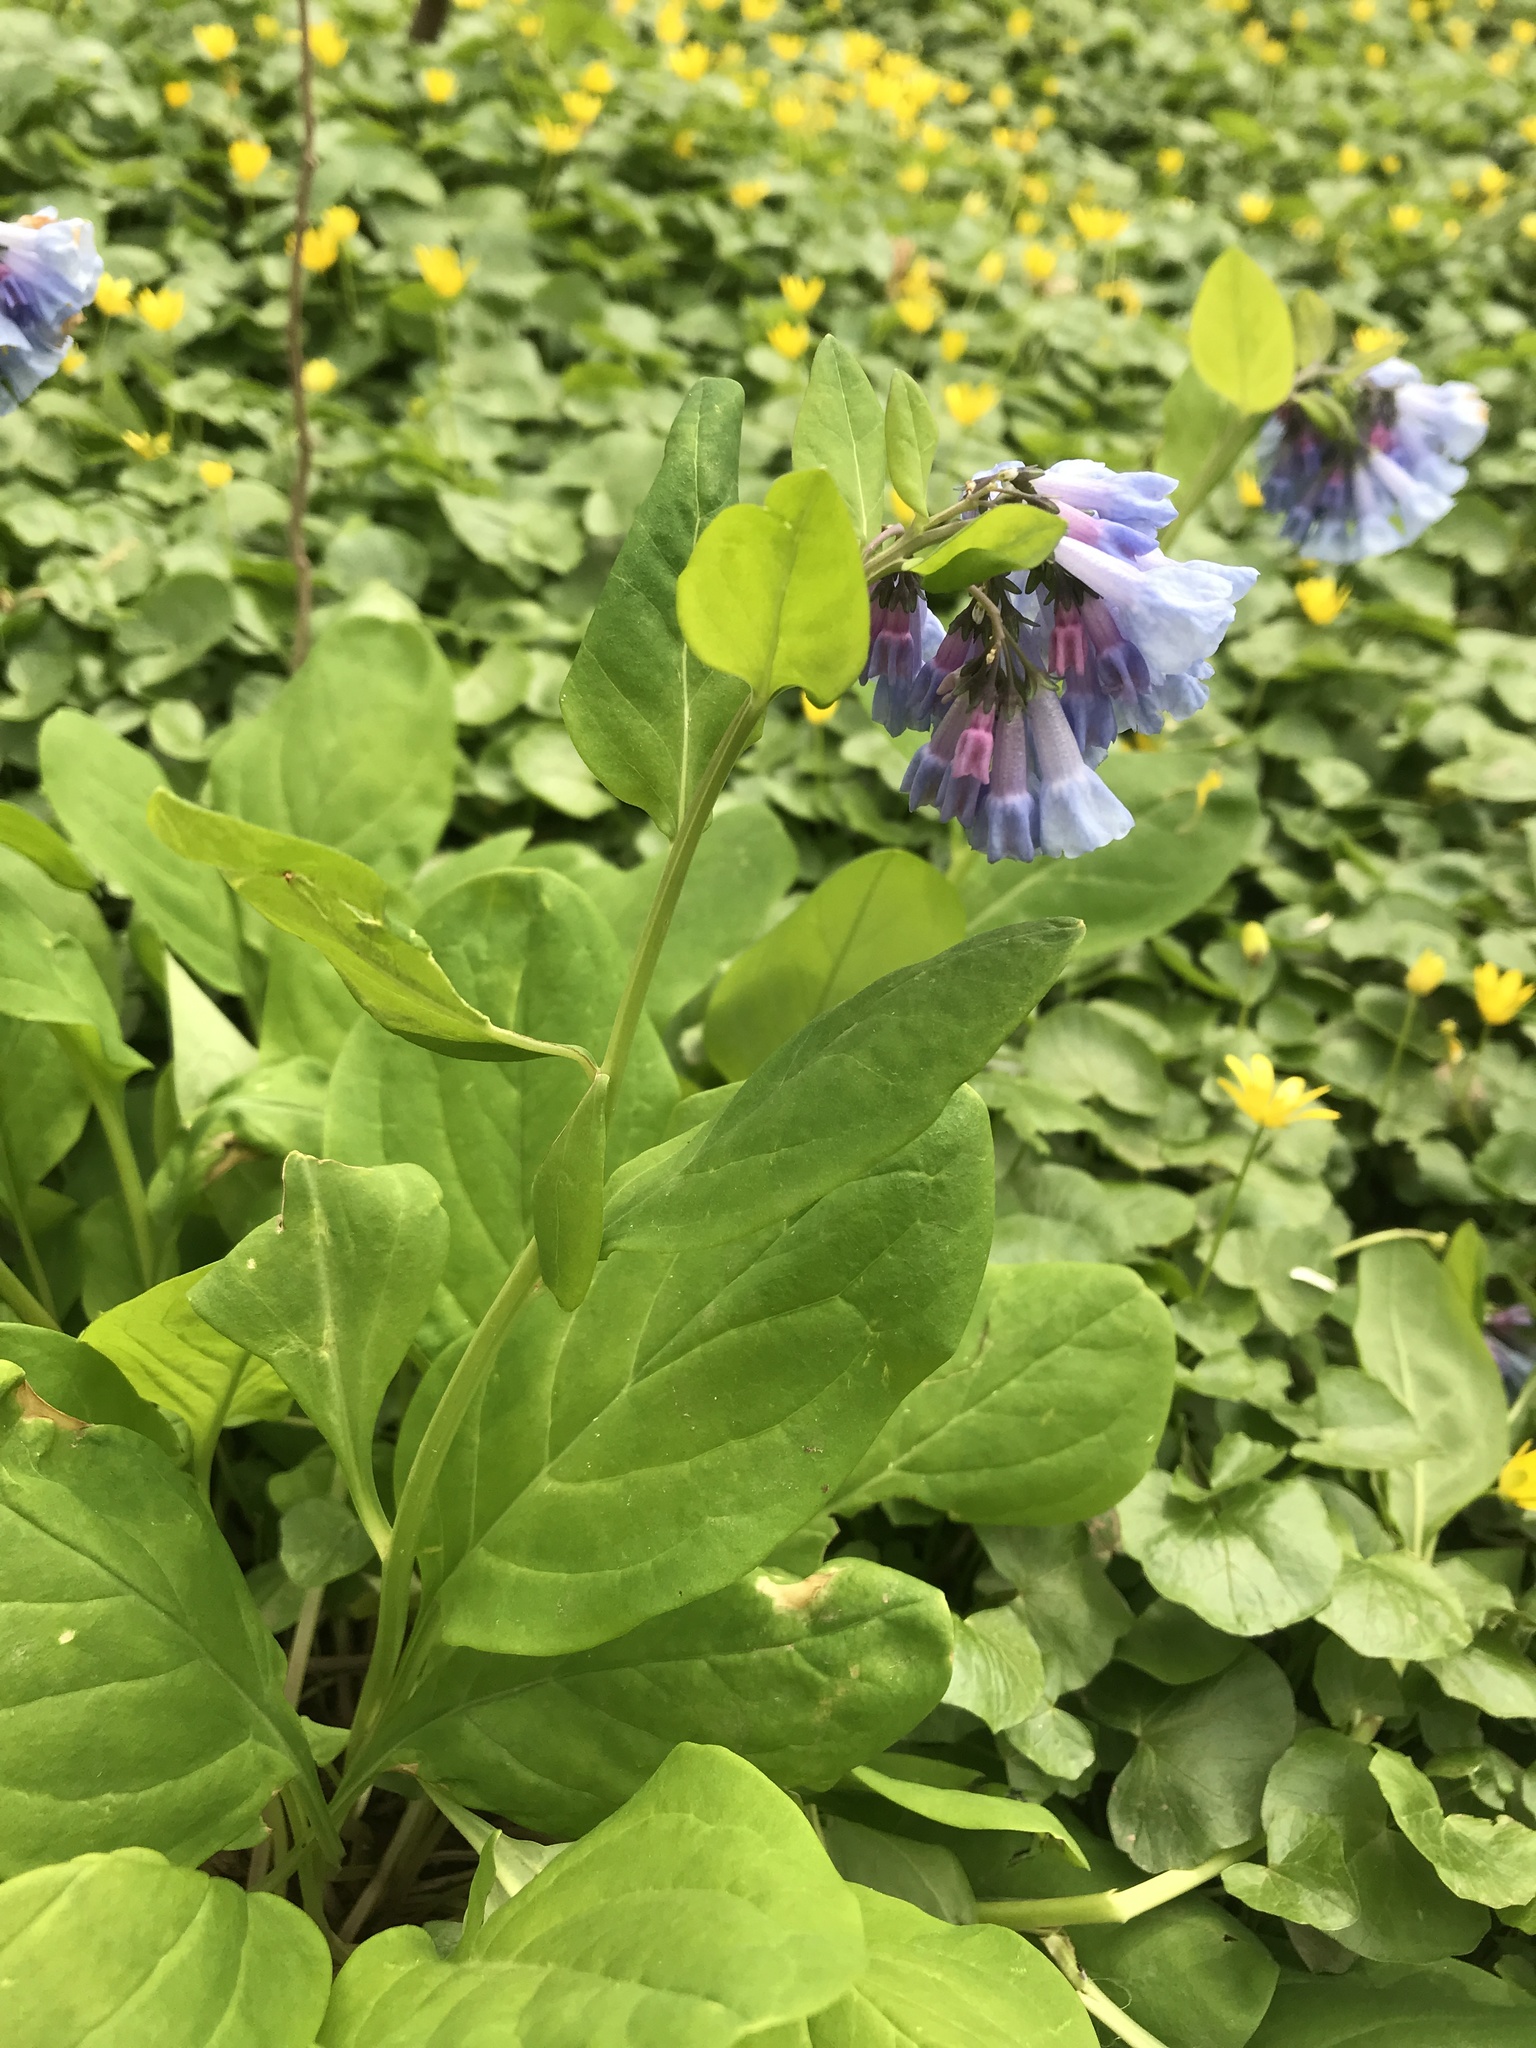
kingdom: Plantae
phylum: Tracheophyta
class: Magnoliopsida
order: Boraginales
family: Boraginaceae
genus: Mertensia
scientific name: Mertensia virginica
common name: Virginia bluebells
